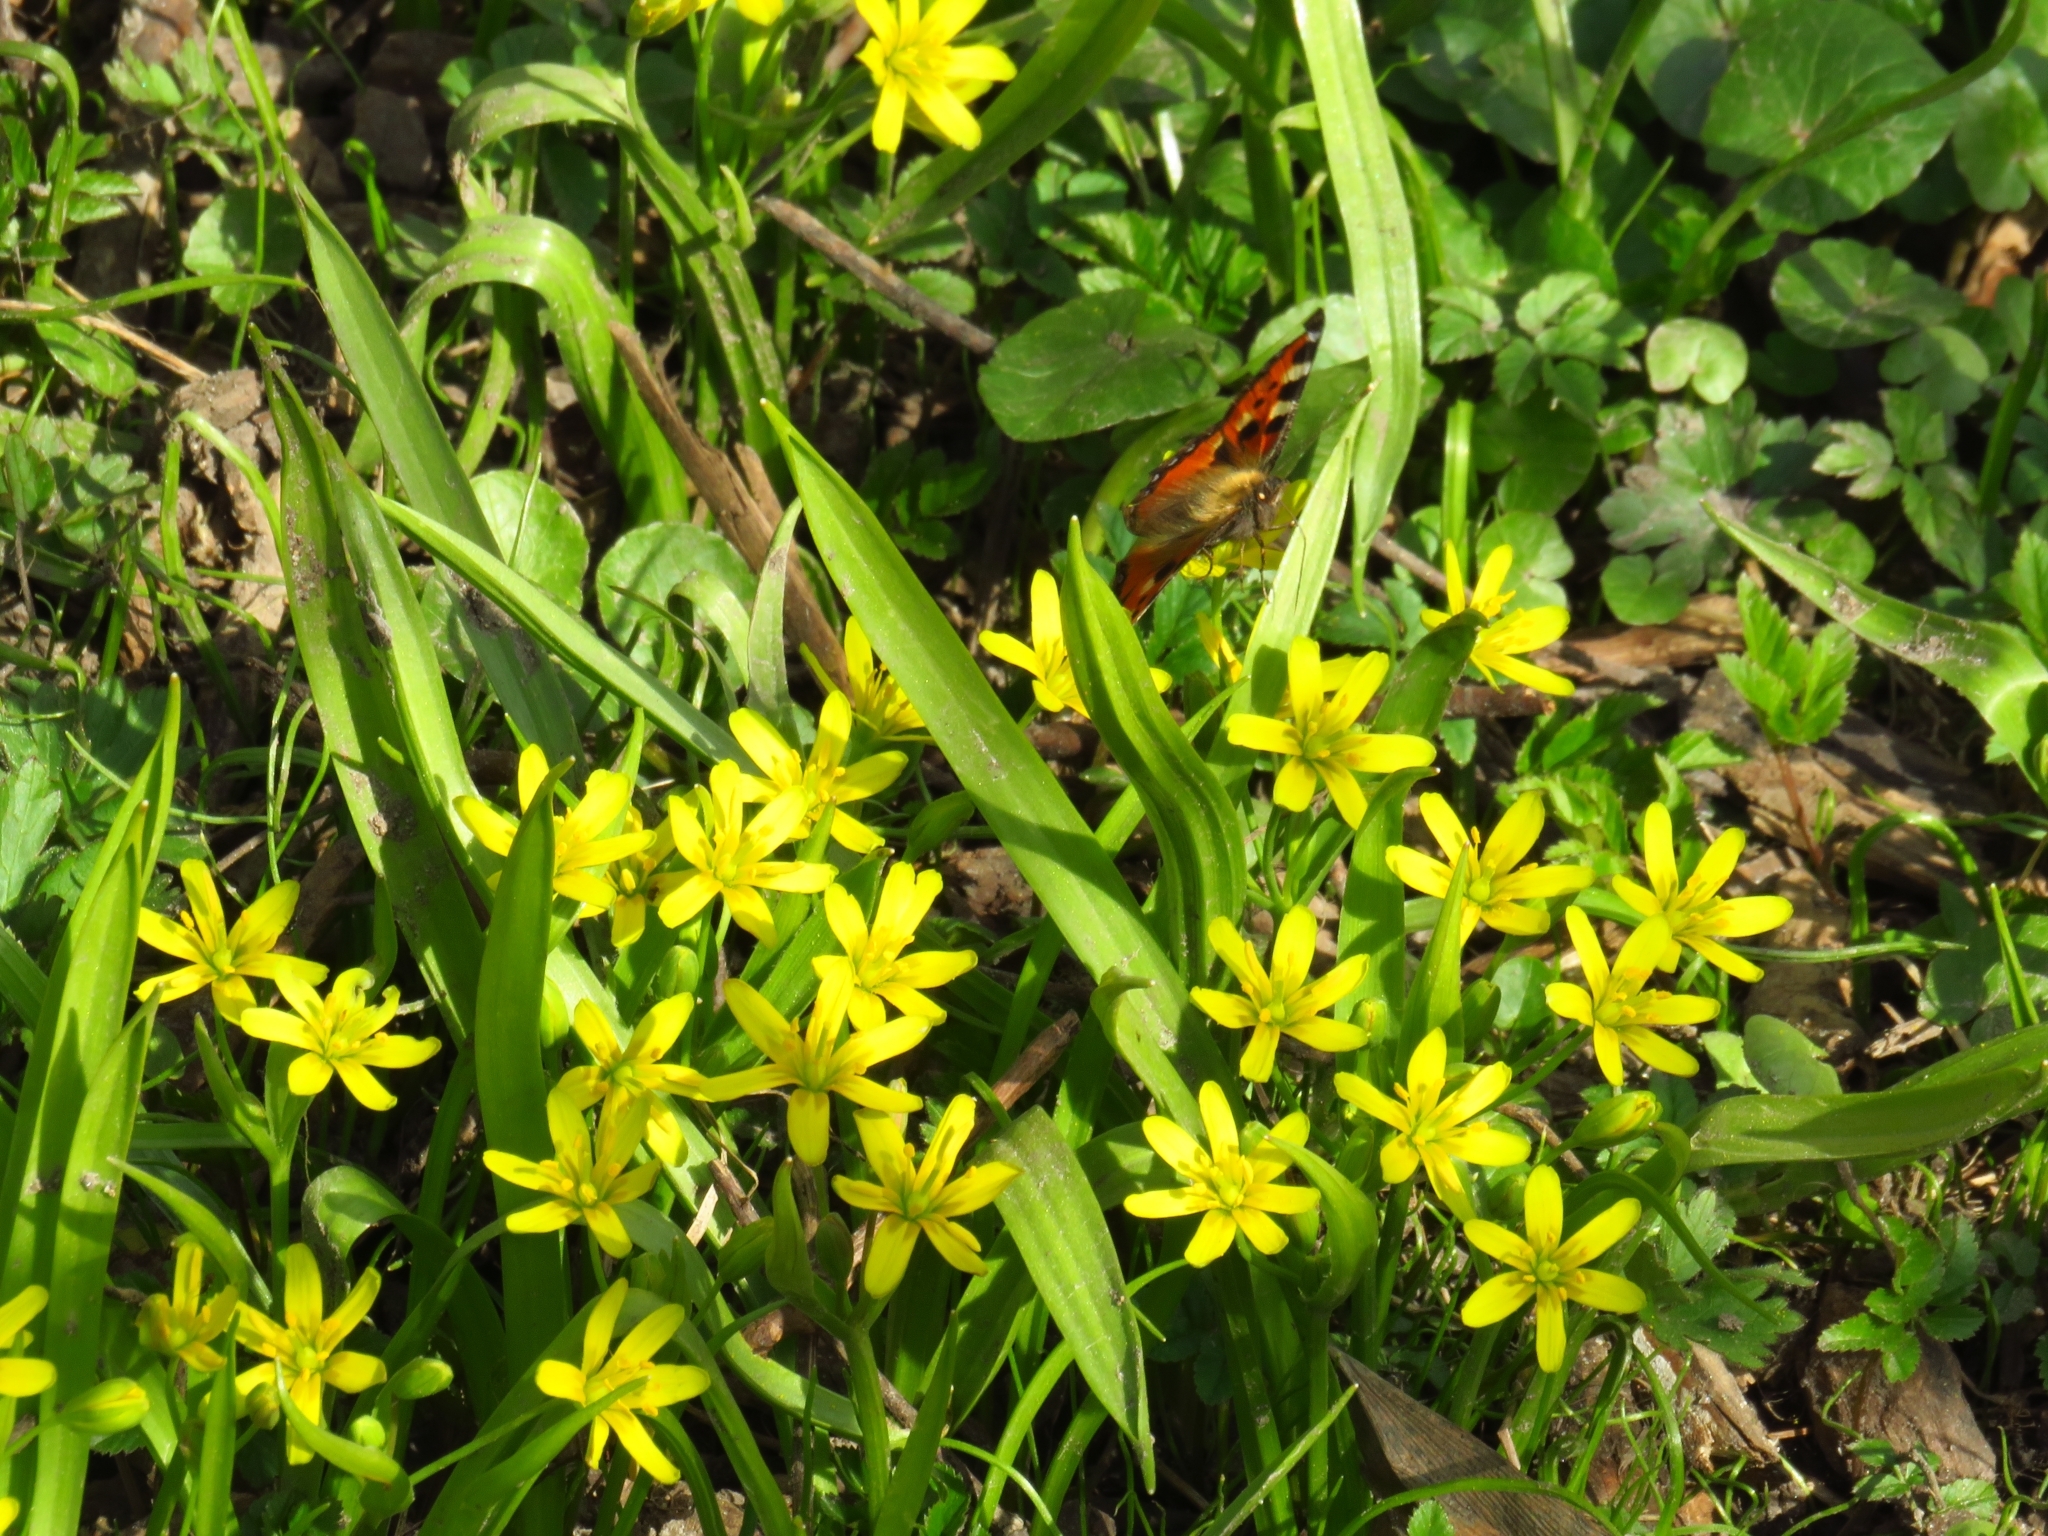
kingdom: Plantae
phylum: Tracheophyta
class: Liliopsida
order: Liliales
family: Liliaceae
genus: Gagea
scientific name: Gagea lutea
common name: Yellow star-of-bethlehem
